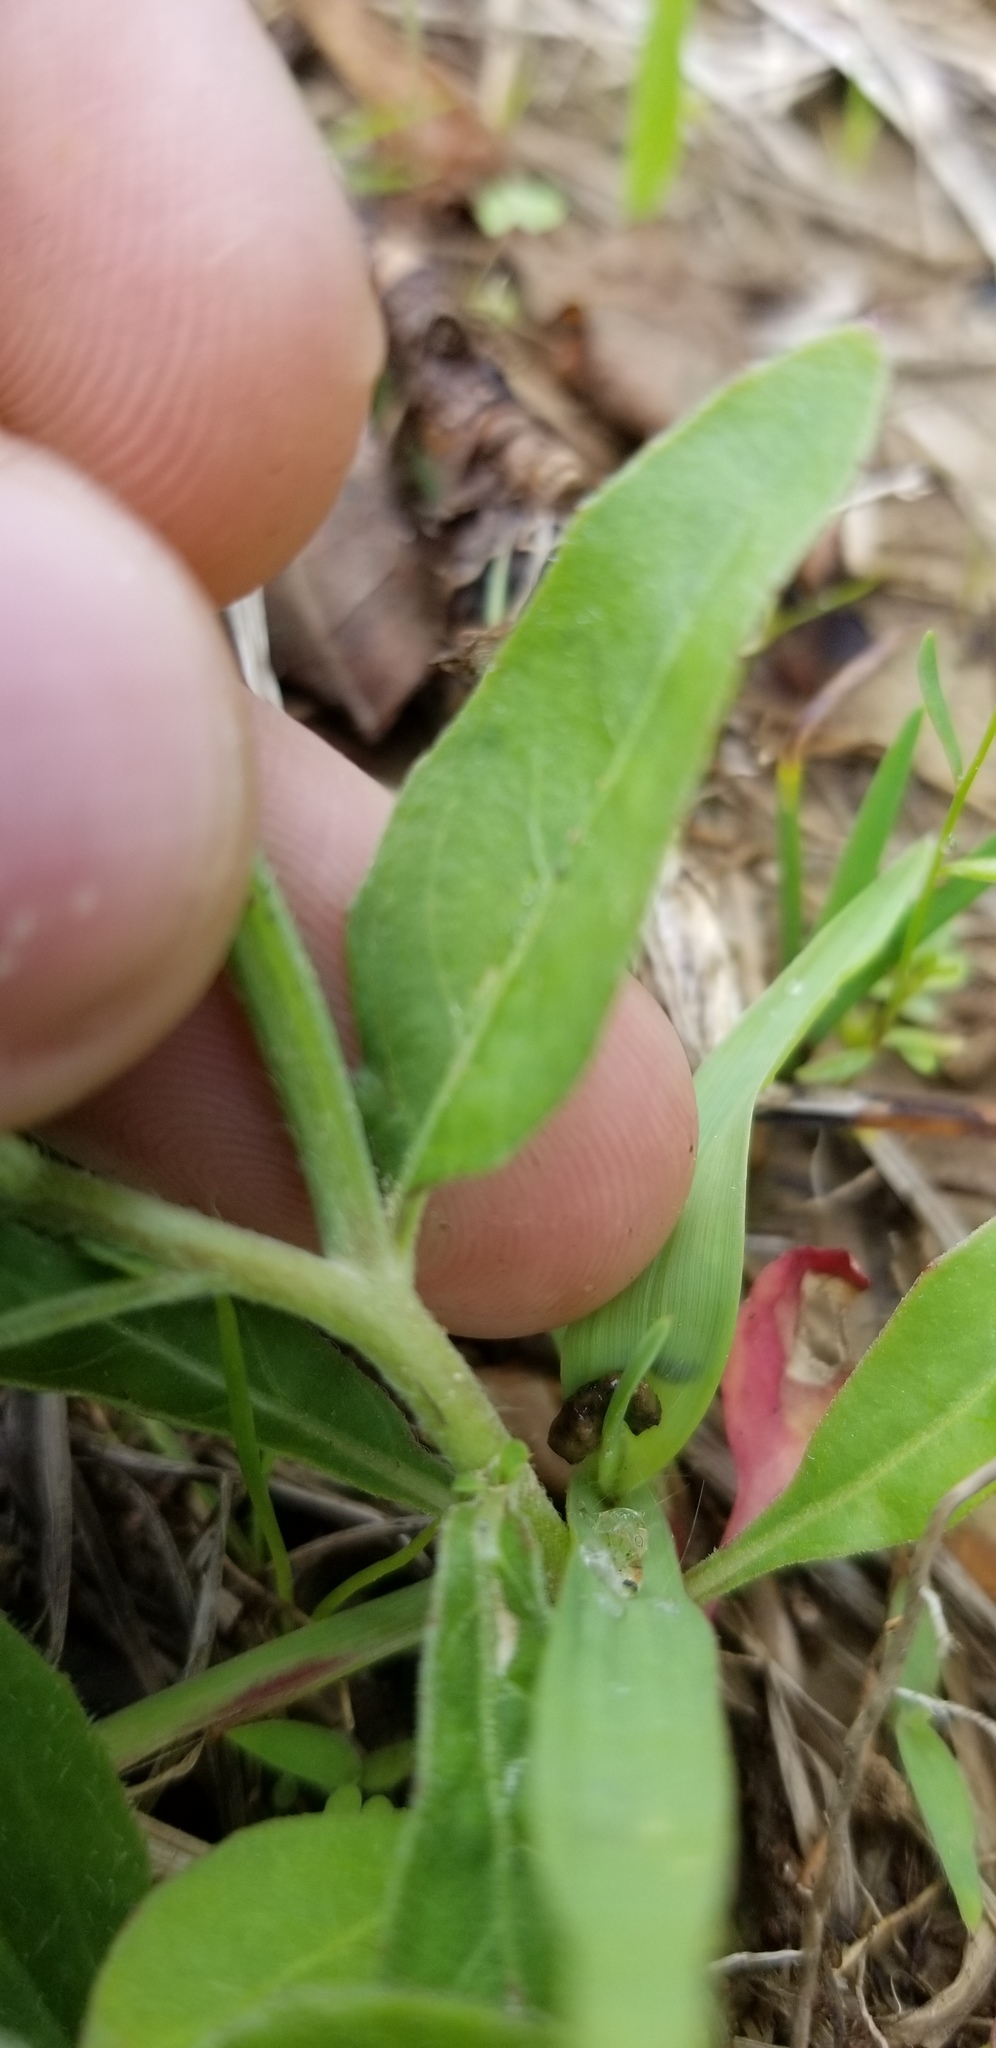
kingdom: Plantae
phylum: Tracheophyta
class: Magnoliopsida
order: Myrtales
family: Onagraceae
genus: Oenothera
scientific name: Oenothera laciniata
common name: Cut-leaved evening-primrose
